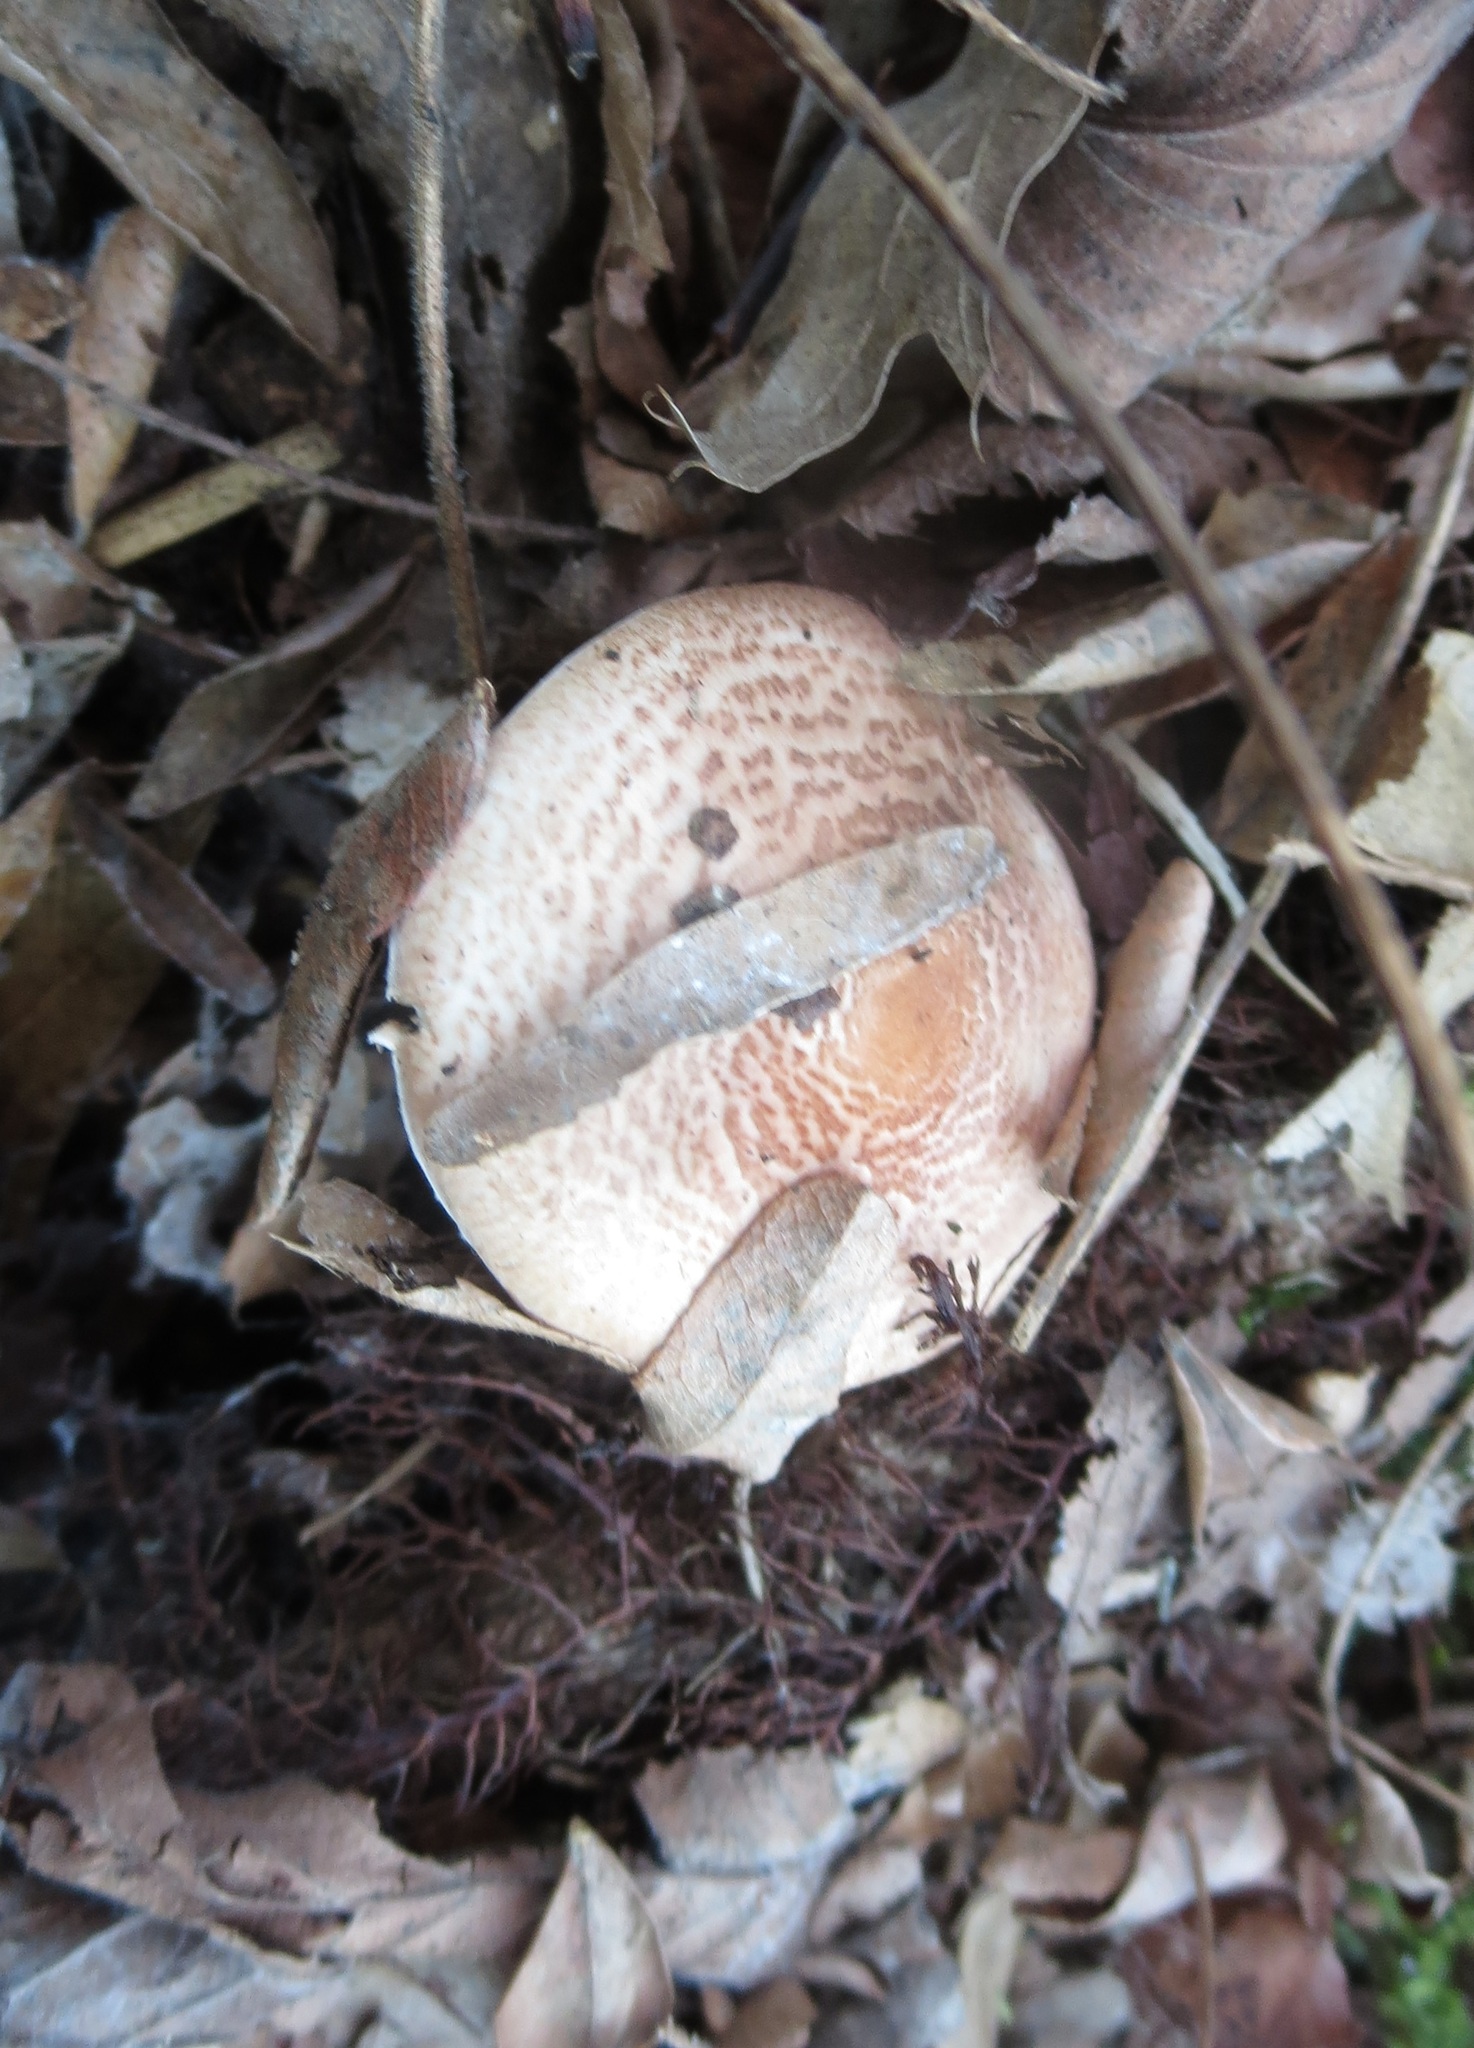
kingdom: Fungi
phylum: Basidiomycota
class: Agaricomycetes
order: Agaricales
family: Agaricaceae
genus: Lepiota
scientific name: Lepiota subincarnata
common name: Fatal dapperling
